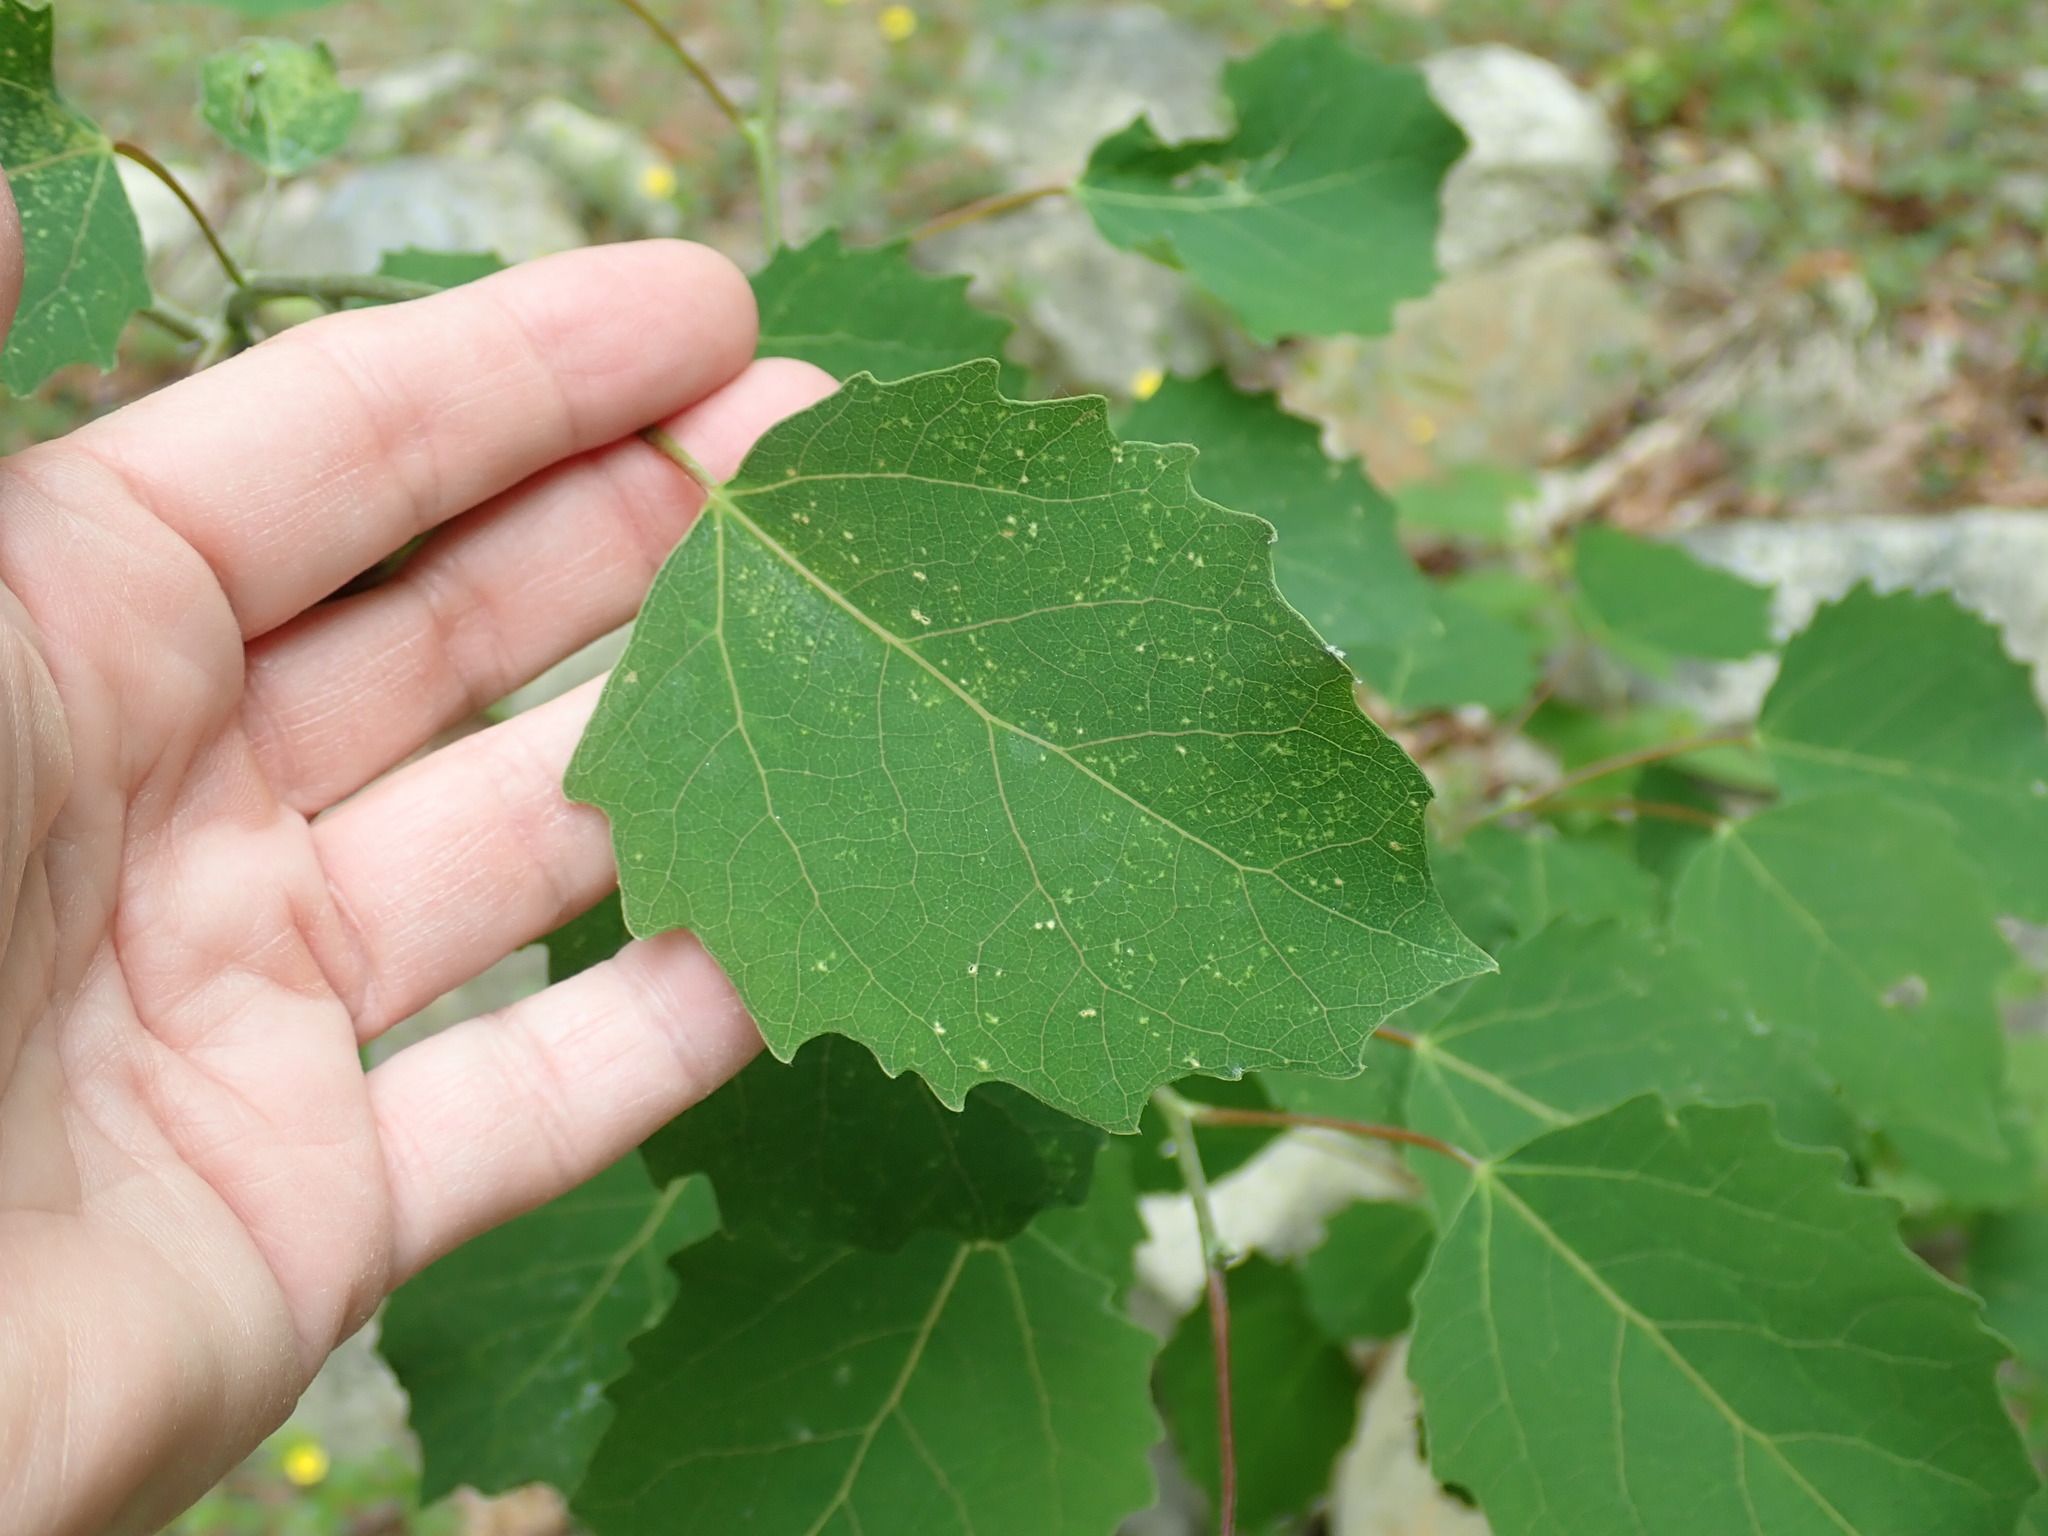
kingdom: Plantae
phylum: Tracheophyta
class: Magnoliopsida
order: Malpighiales
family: Salicaceae
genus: Populus
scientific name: Populus grandidentata
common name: Bigtooth aspen
